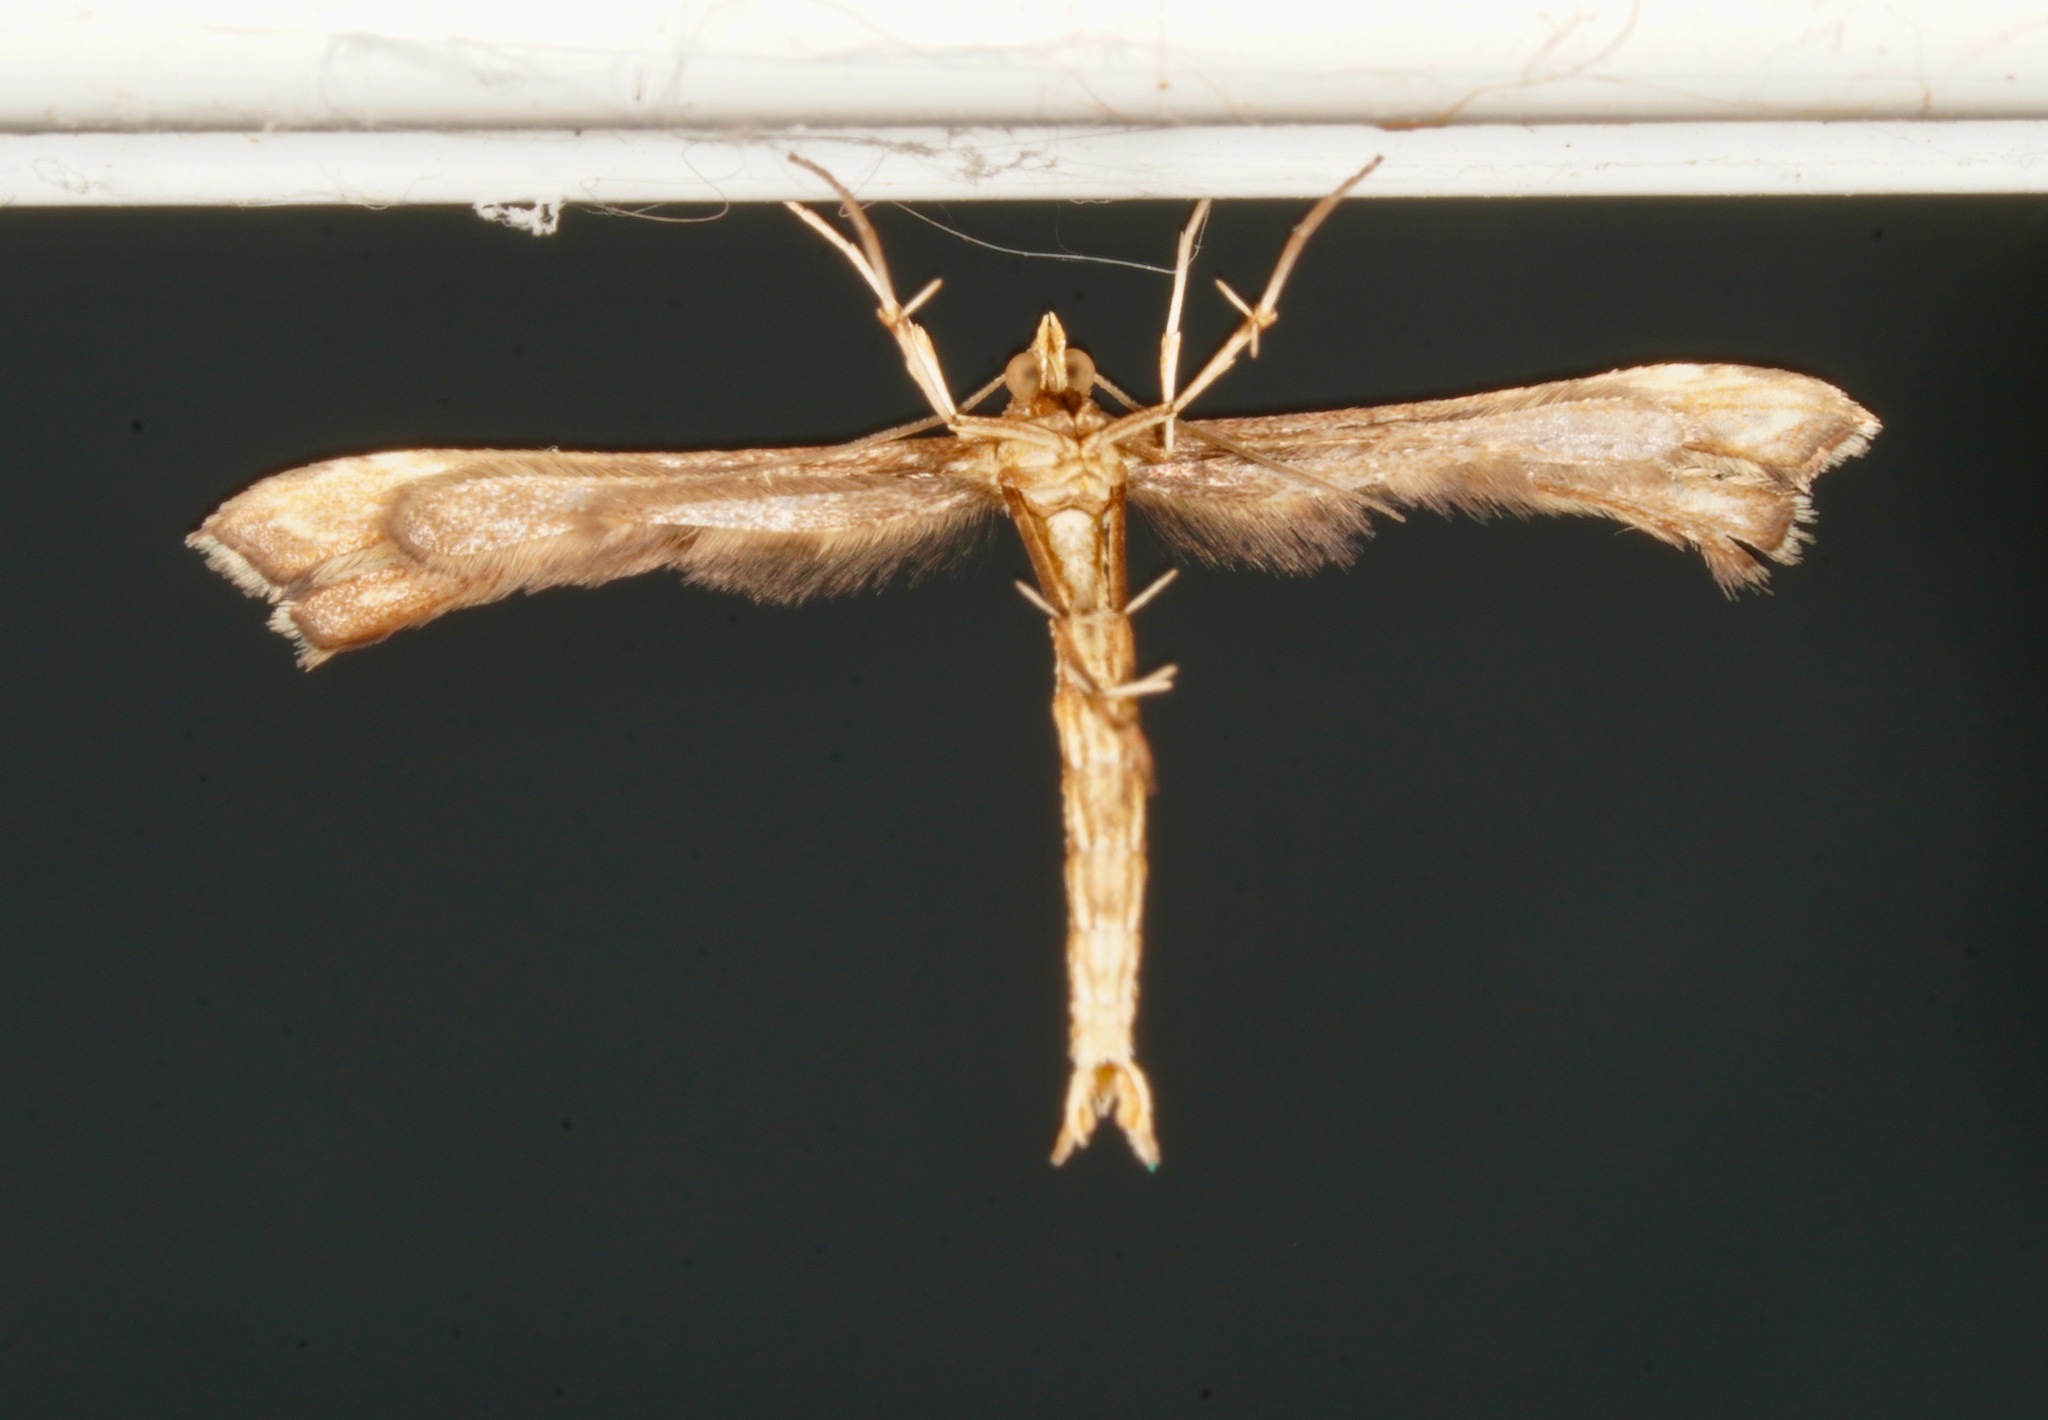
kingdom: Animalia
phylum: Arthropoda
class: Insecta
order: Lepidoptera
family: Pterophoridae
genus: Platyptilia
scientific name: Platyptilia isodactylus
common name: Hoary plume
